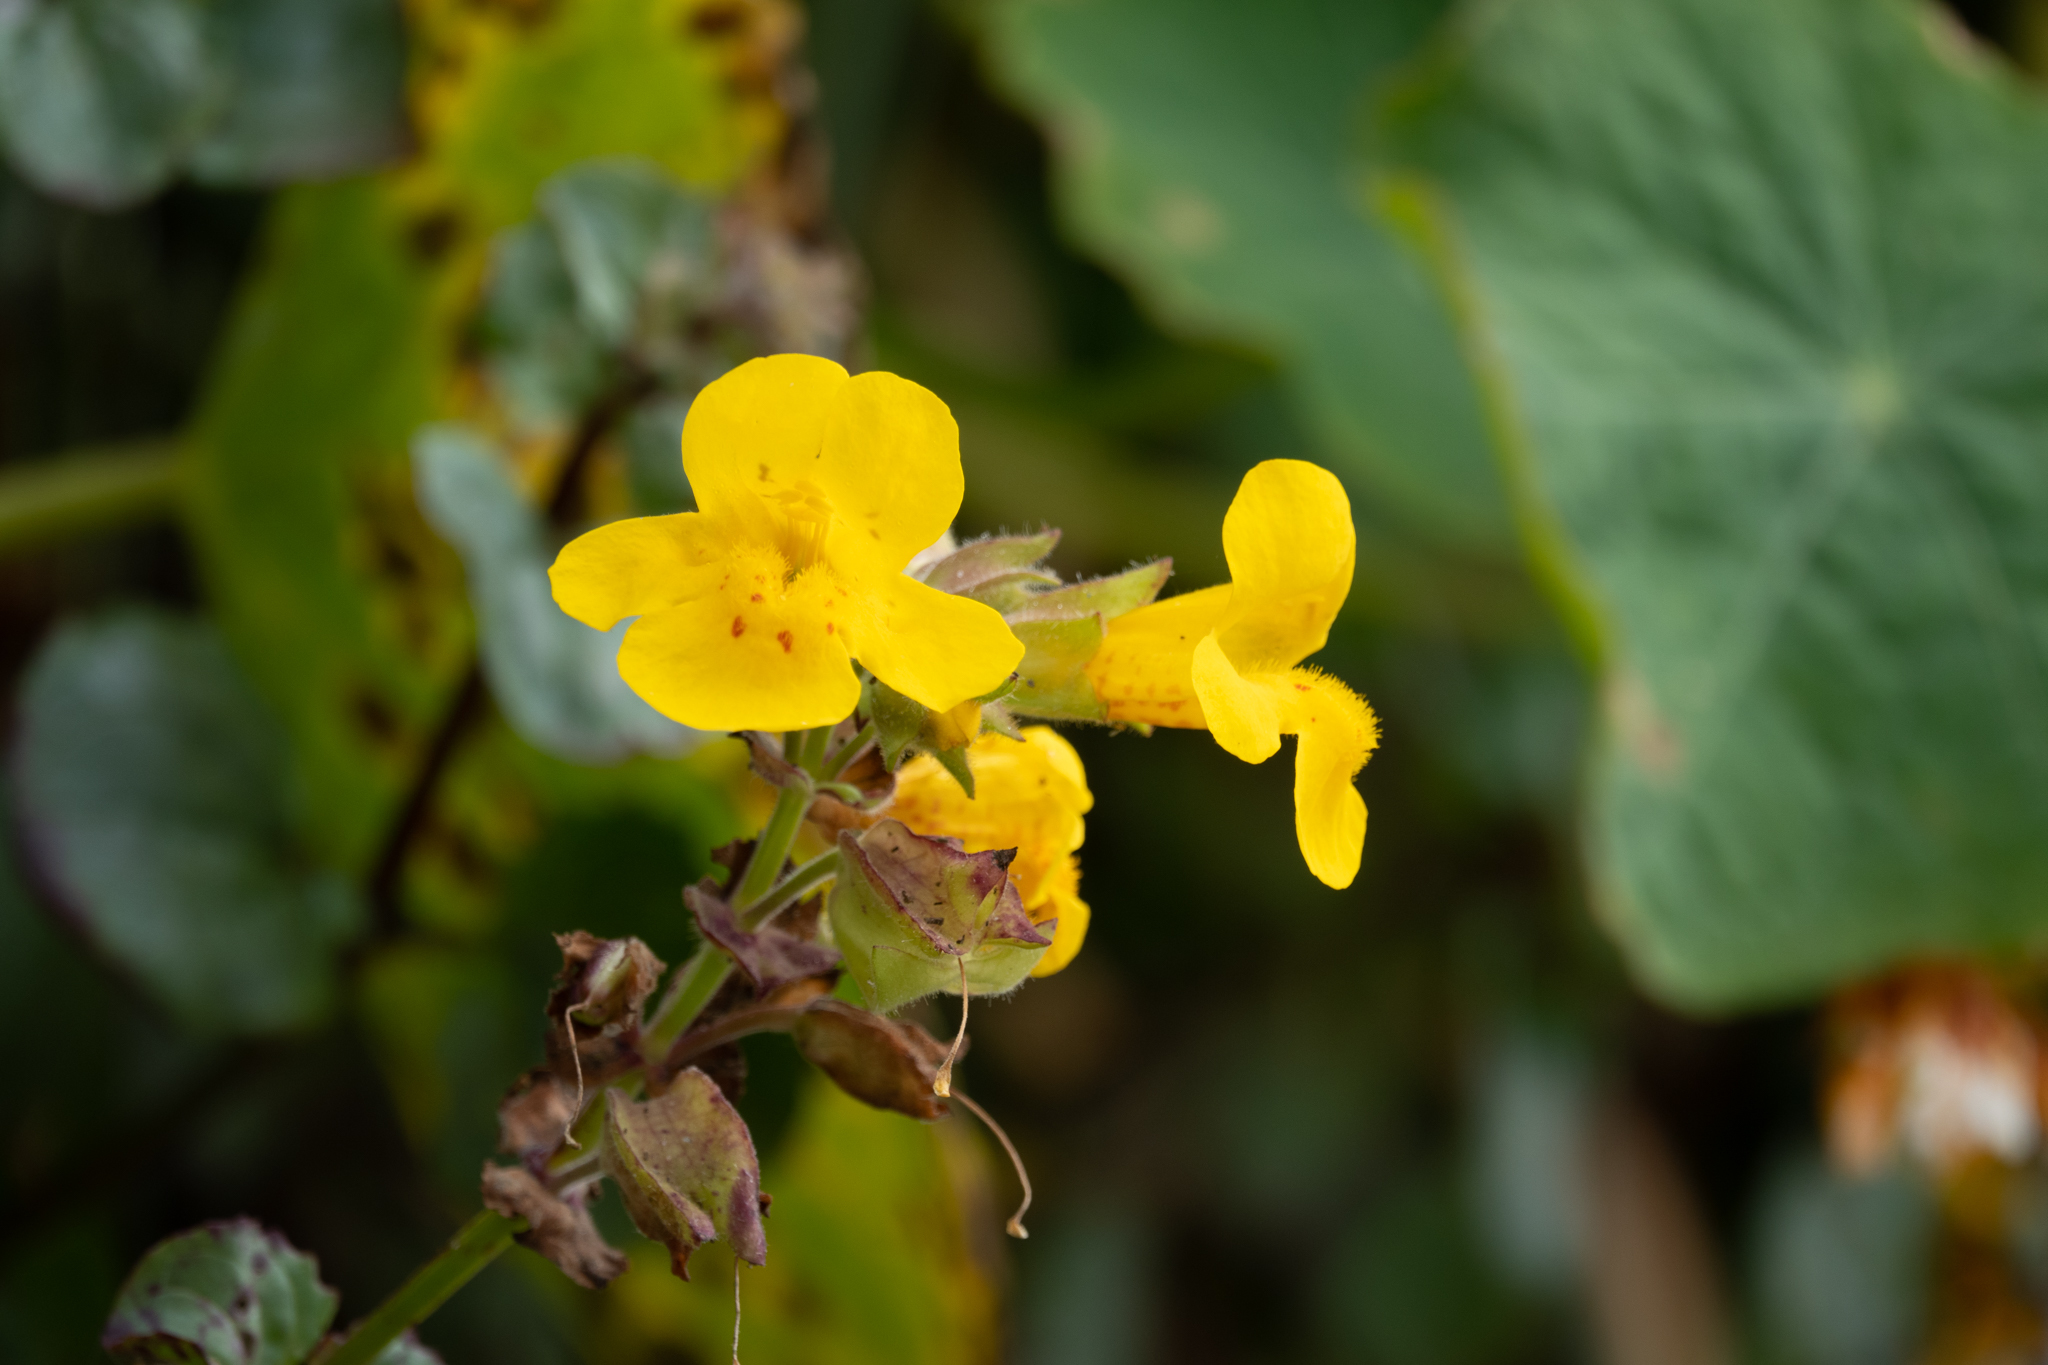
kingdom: Plantae
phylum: Tracheophyta
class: Magnoliopsida
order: Lamiales
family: Phrymaceae
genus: Erythranthe
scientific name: Erythranthe grandis
